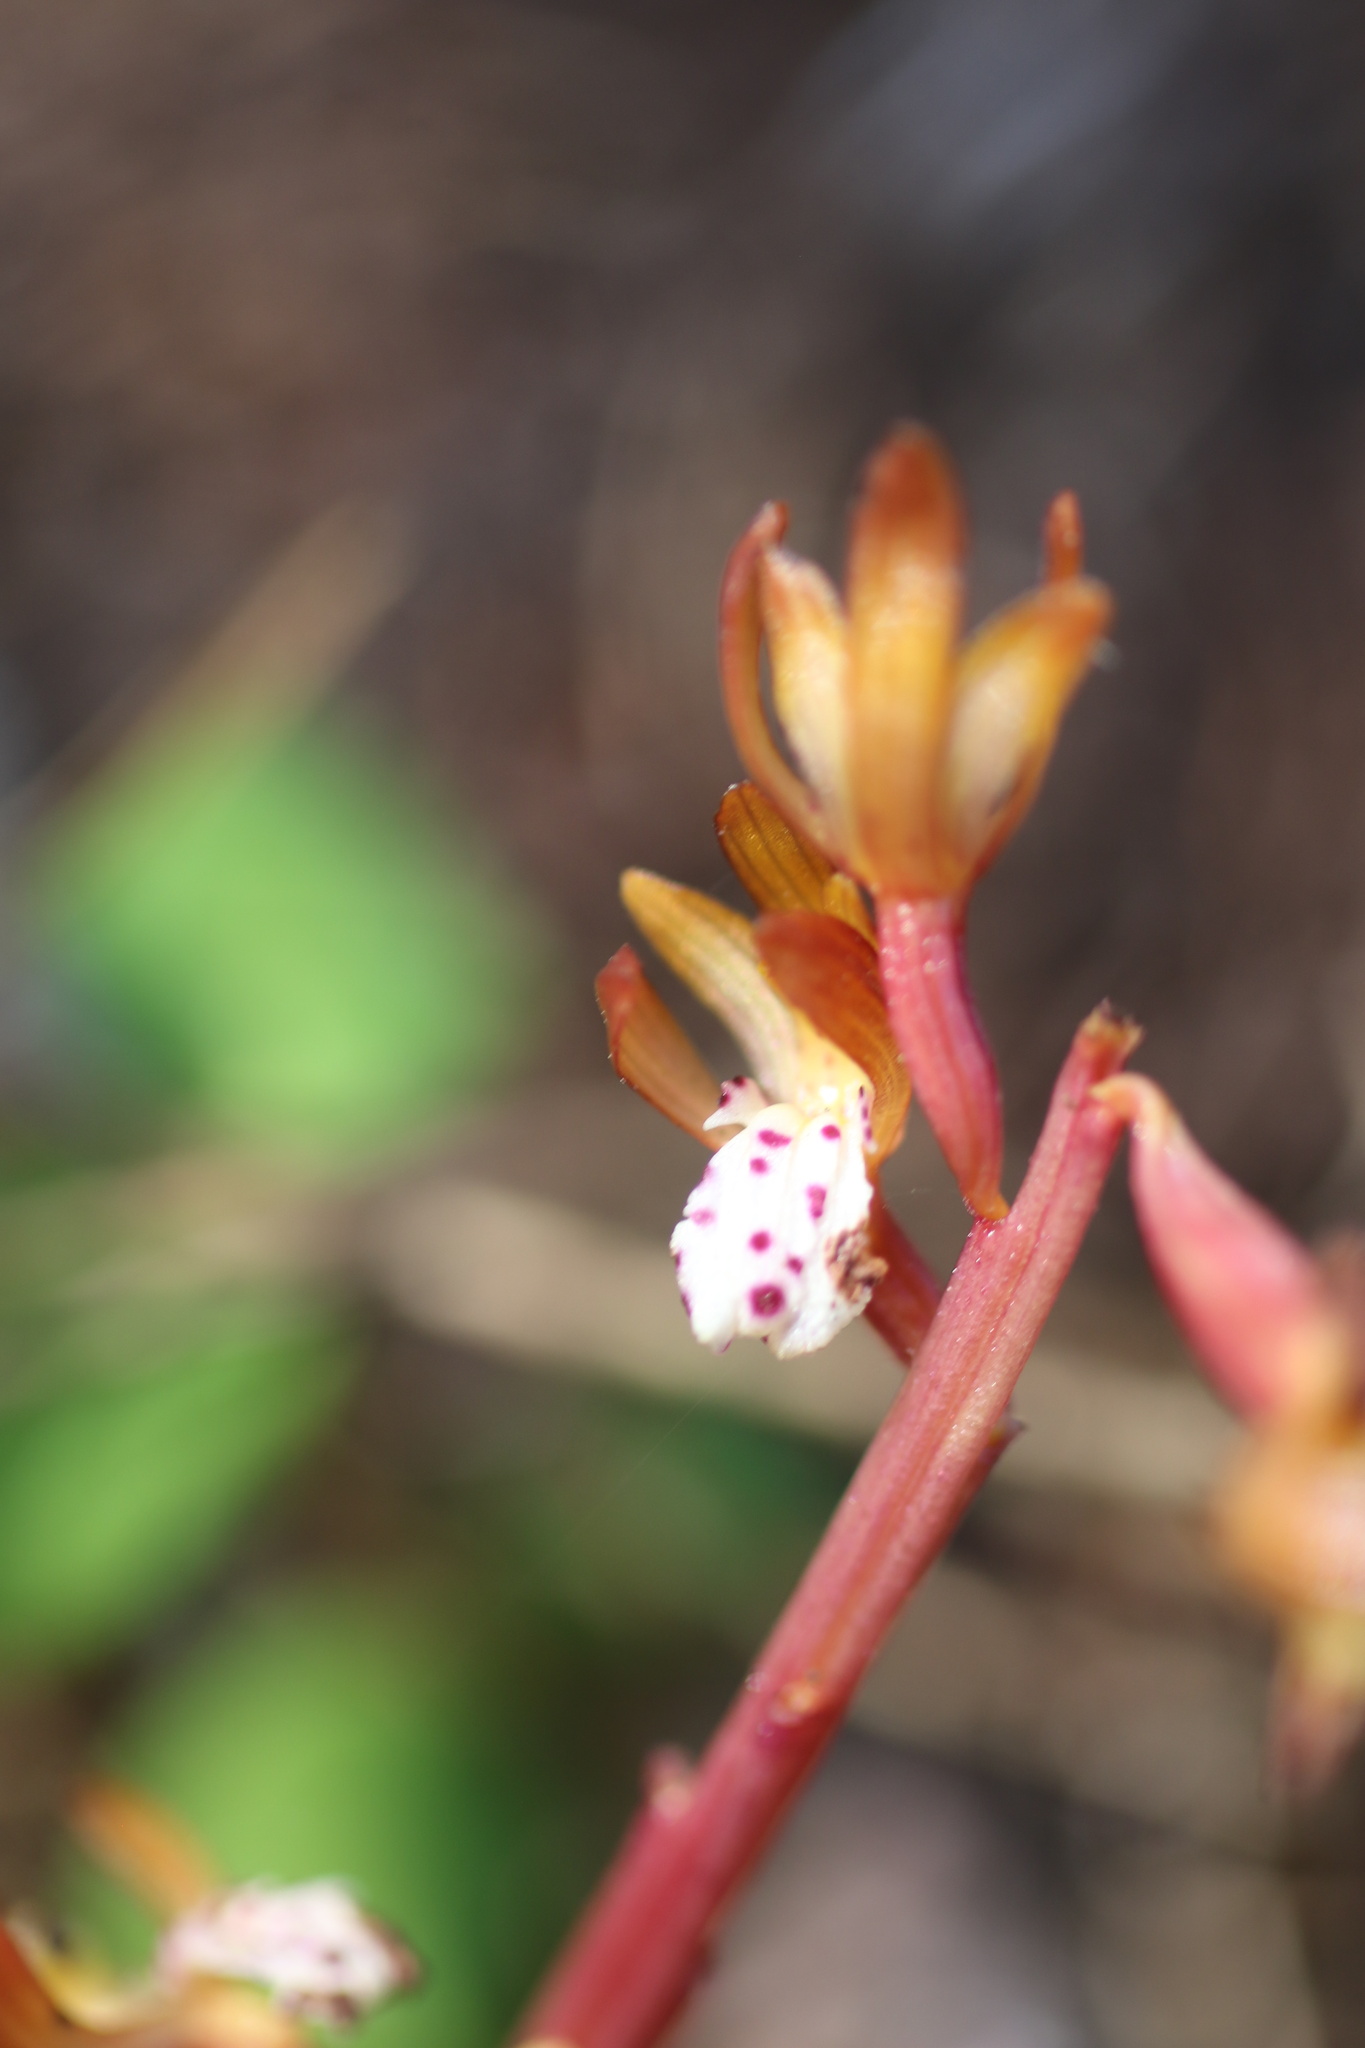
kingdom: Plantae
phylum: Tracheophyta
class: Liliopsida
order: Asparagales
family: Orchidaceae
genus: Corallorhiza
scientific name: Corallorhiza maculata
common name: Spotted coralroot
